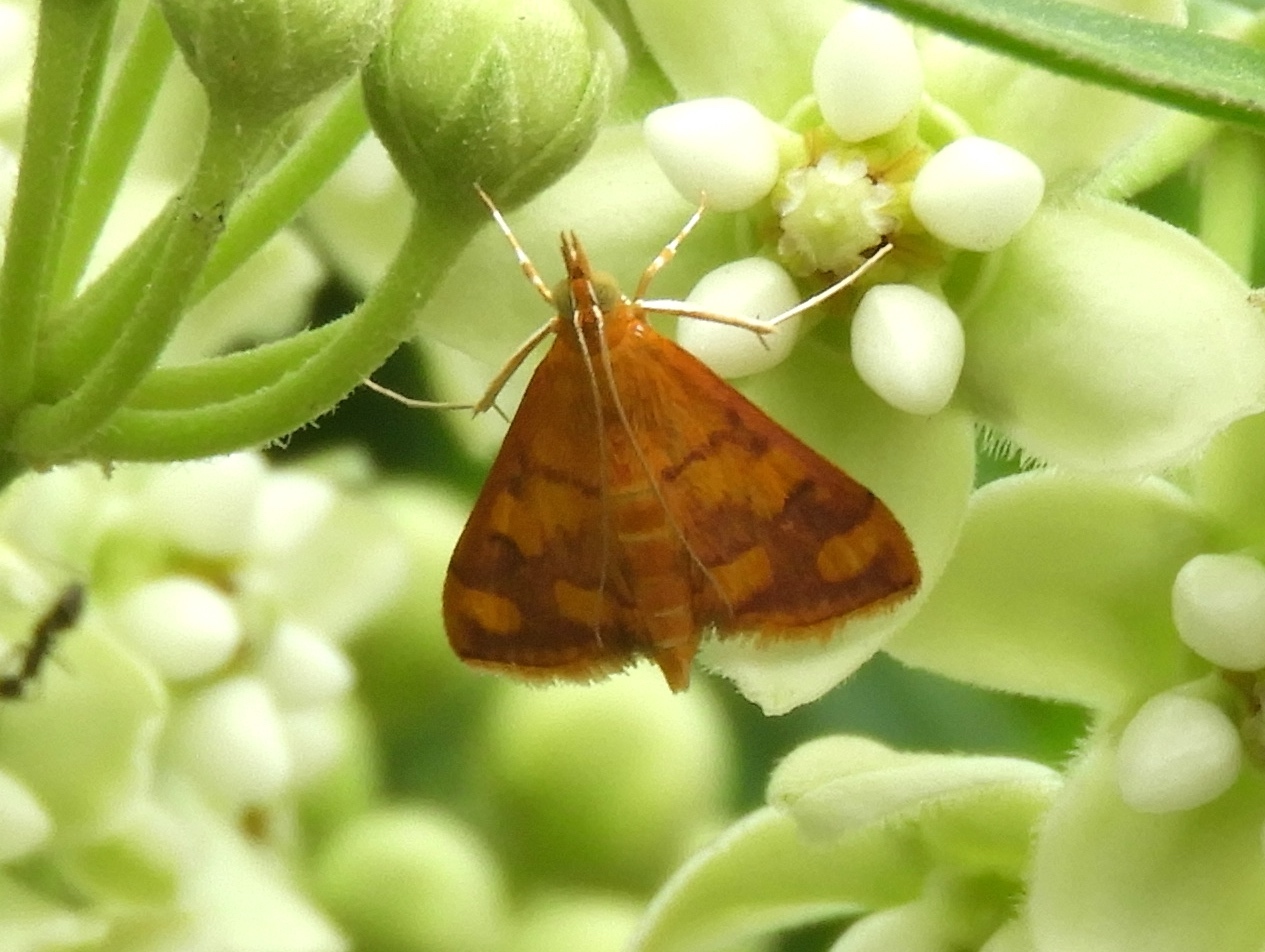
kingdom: Animalia
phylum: Arthropoda
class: Insecta
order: Lepidoptera
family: Crambidae
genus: Pyrausta
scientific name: Pyrausta
